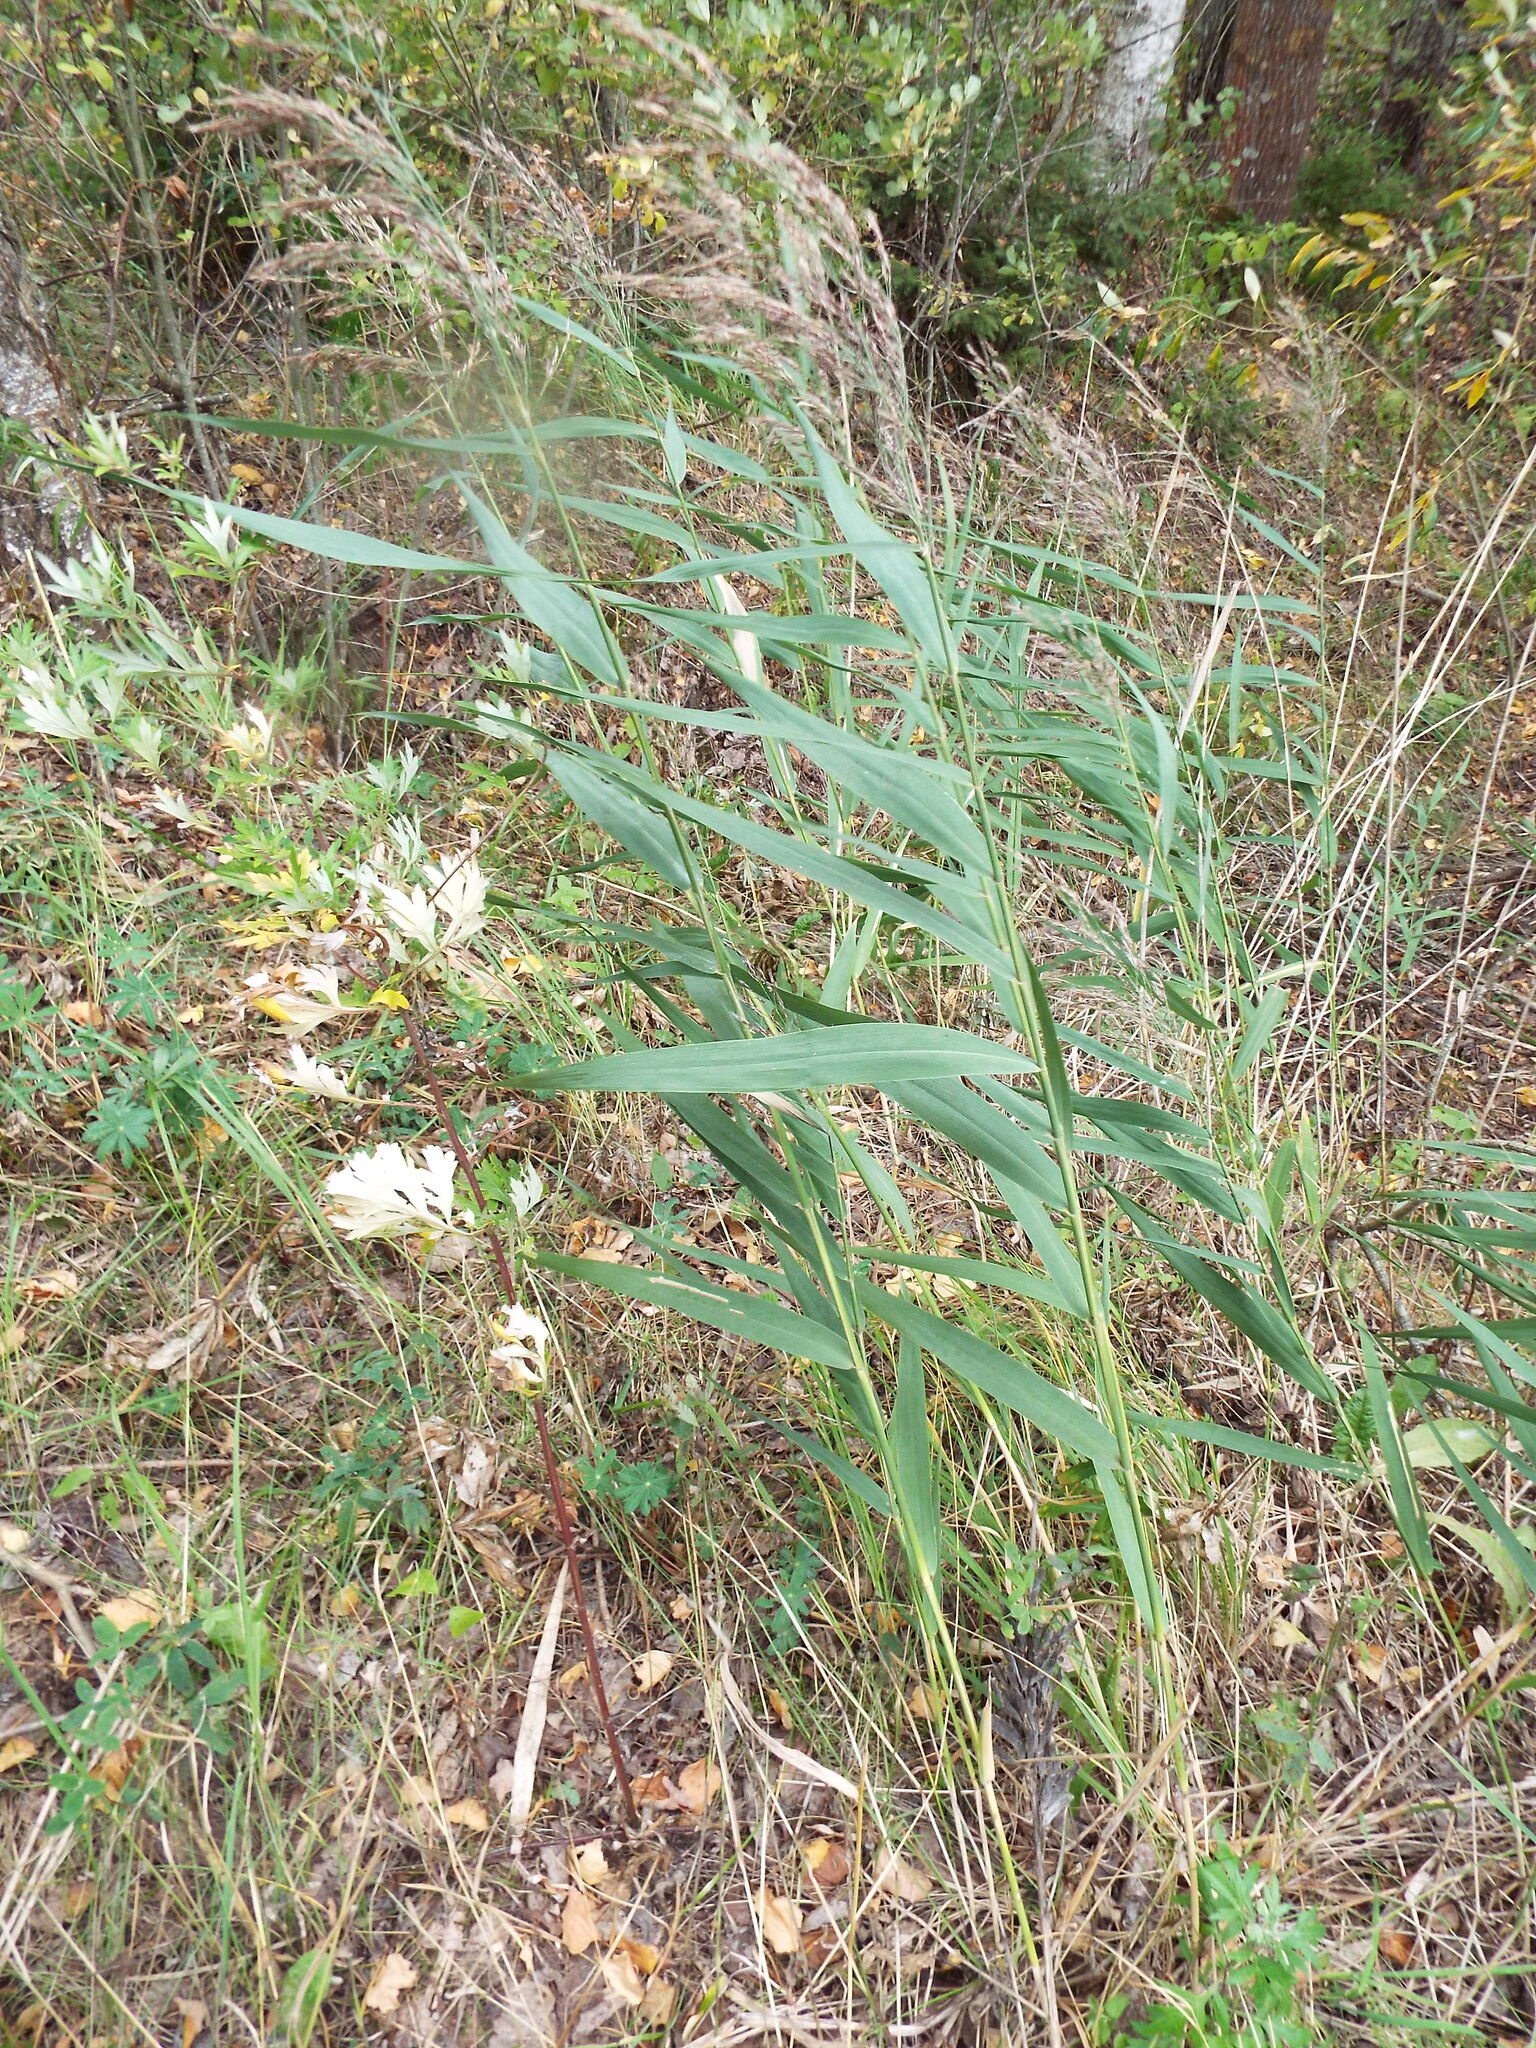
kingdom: Plantae
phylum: Tracheophyta
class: Liliopsida
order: Poales
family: Poaceae
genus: Phragmites
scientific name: Phragmites australis
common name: Common reed
